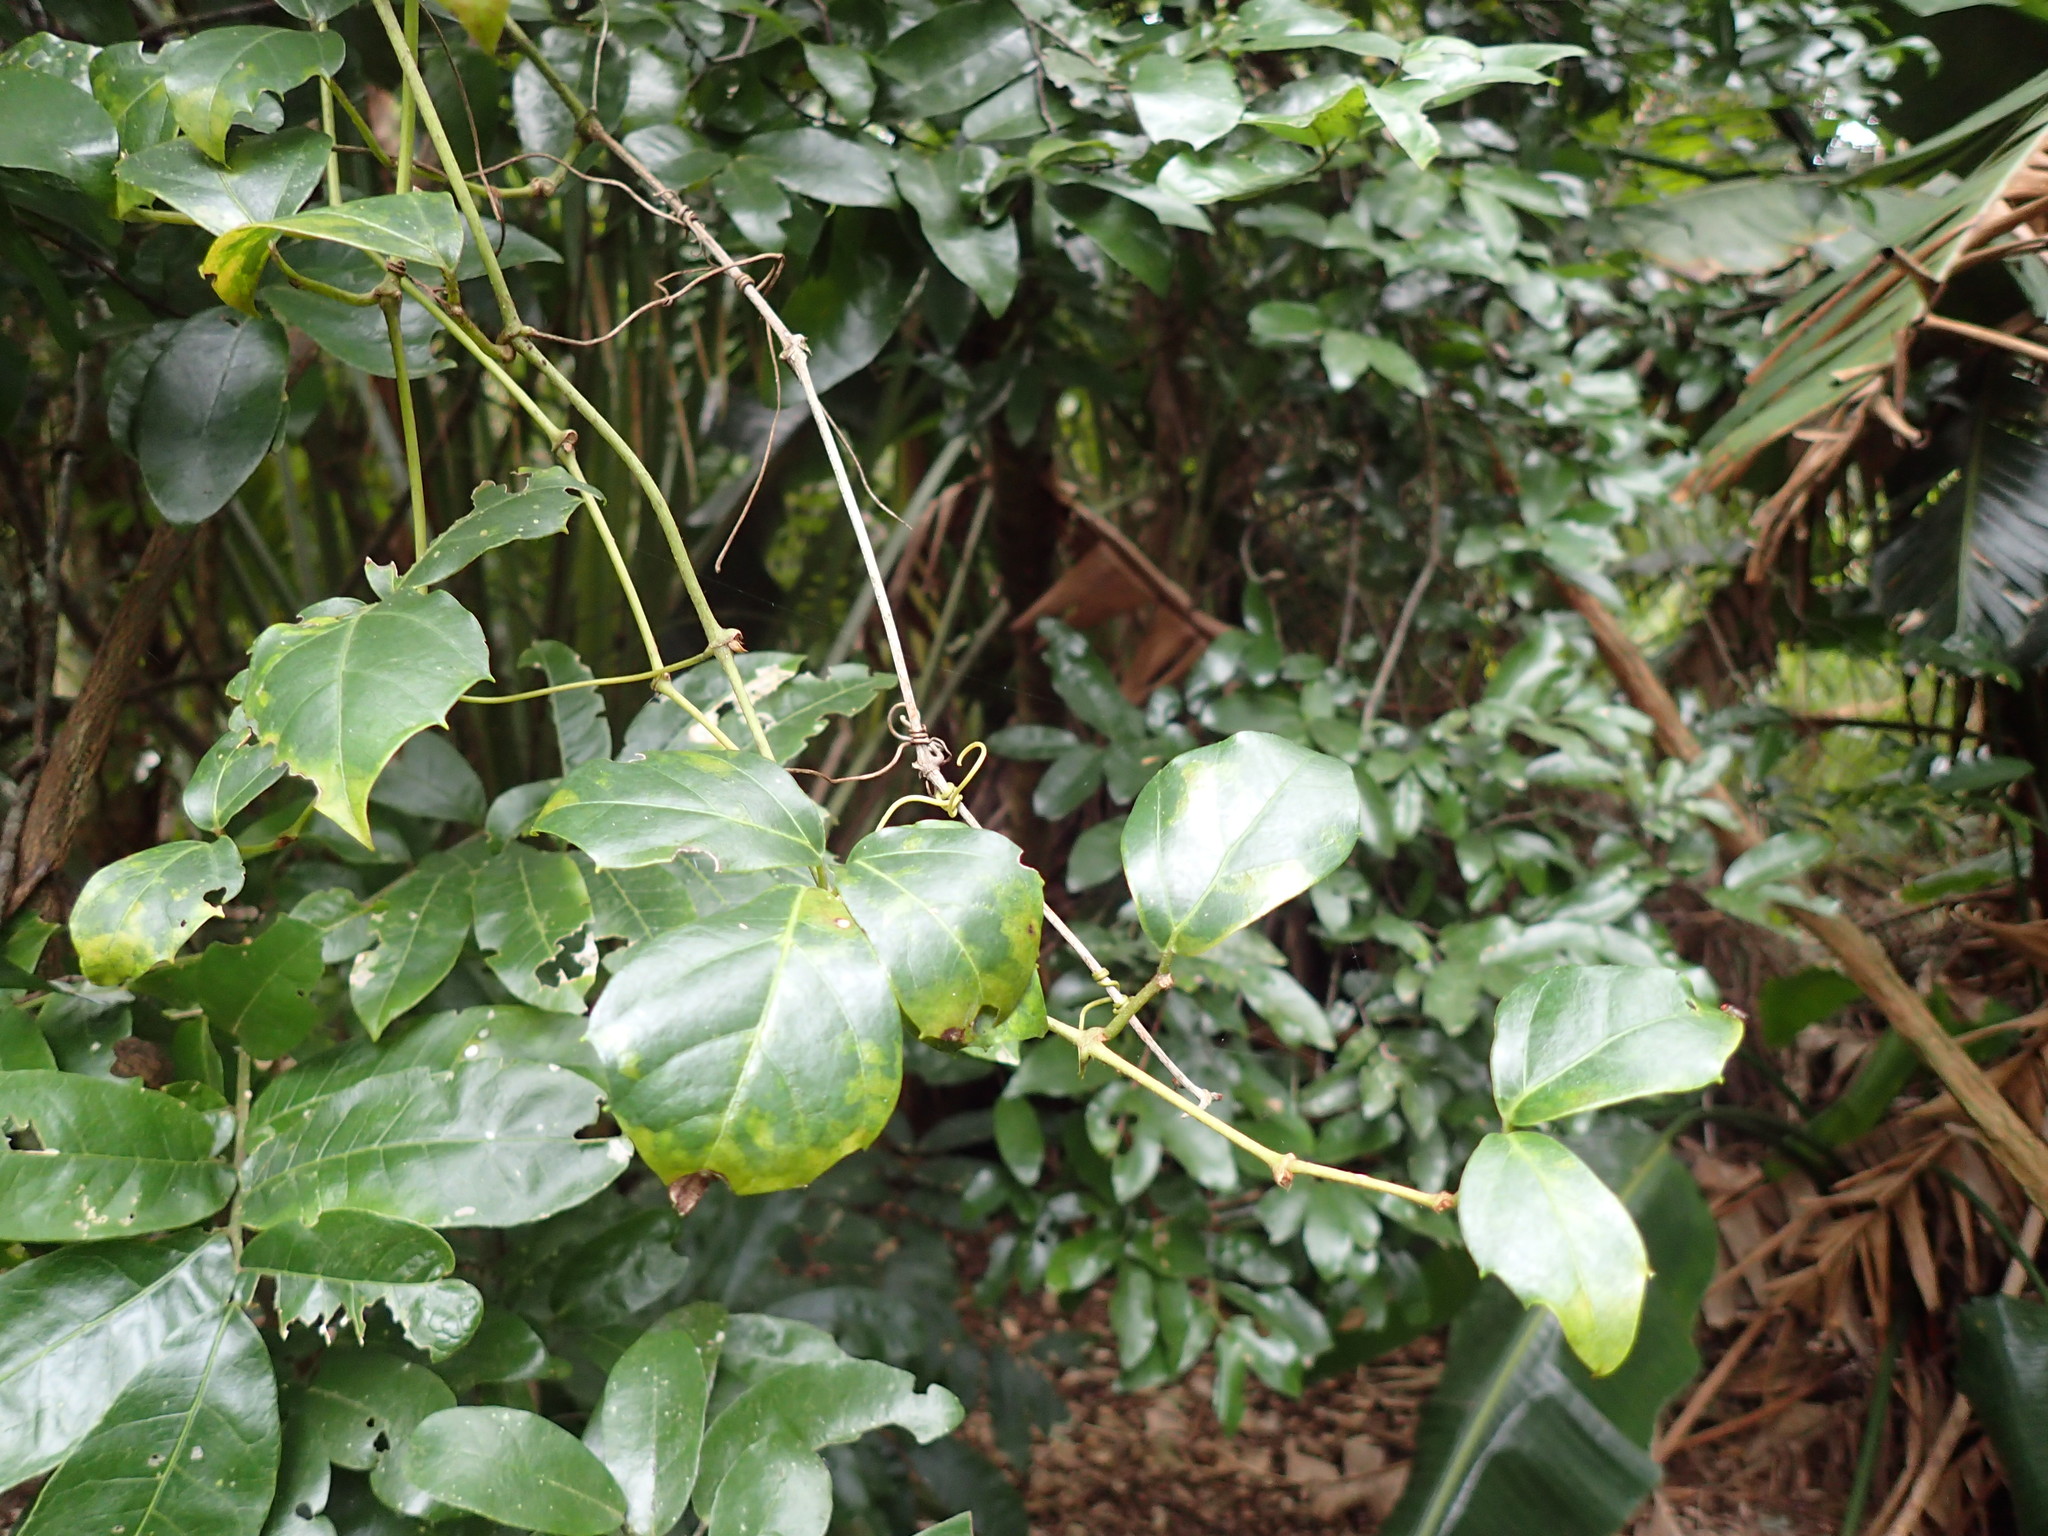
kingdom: Plantae
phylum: Tracheophyta
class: Magnoliopsida
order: Vitales
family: Vitaceae
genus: Rhoicissus
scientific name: Rhoicissus rhomboidea
